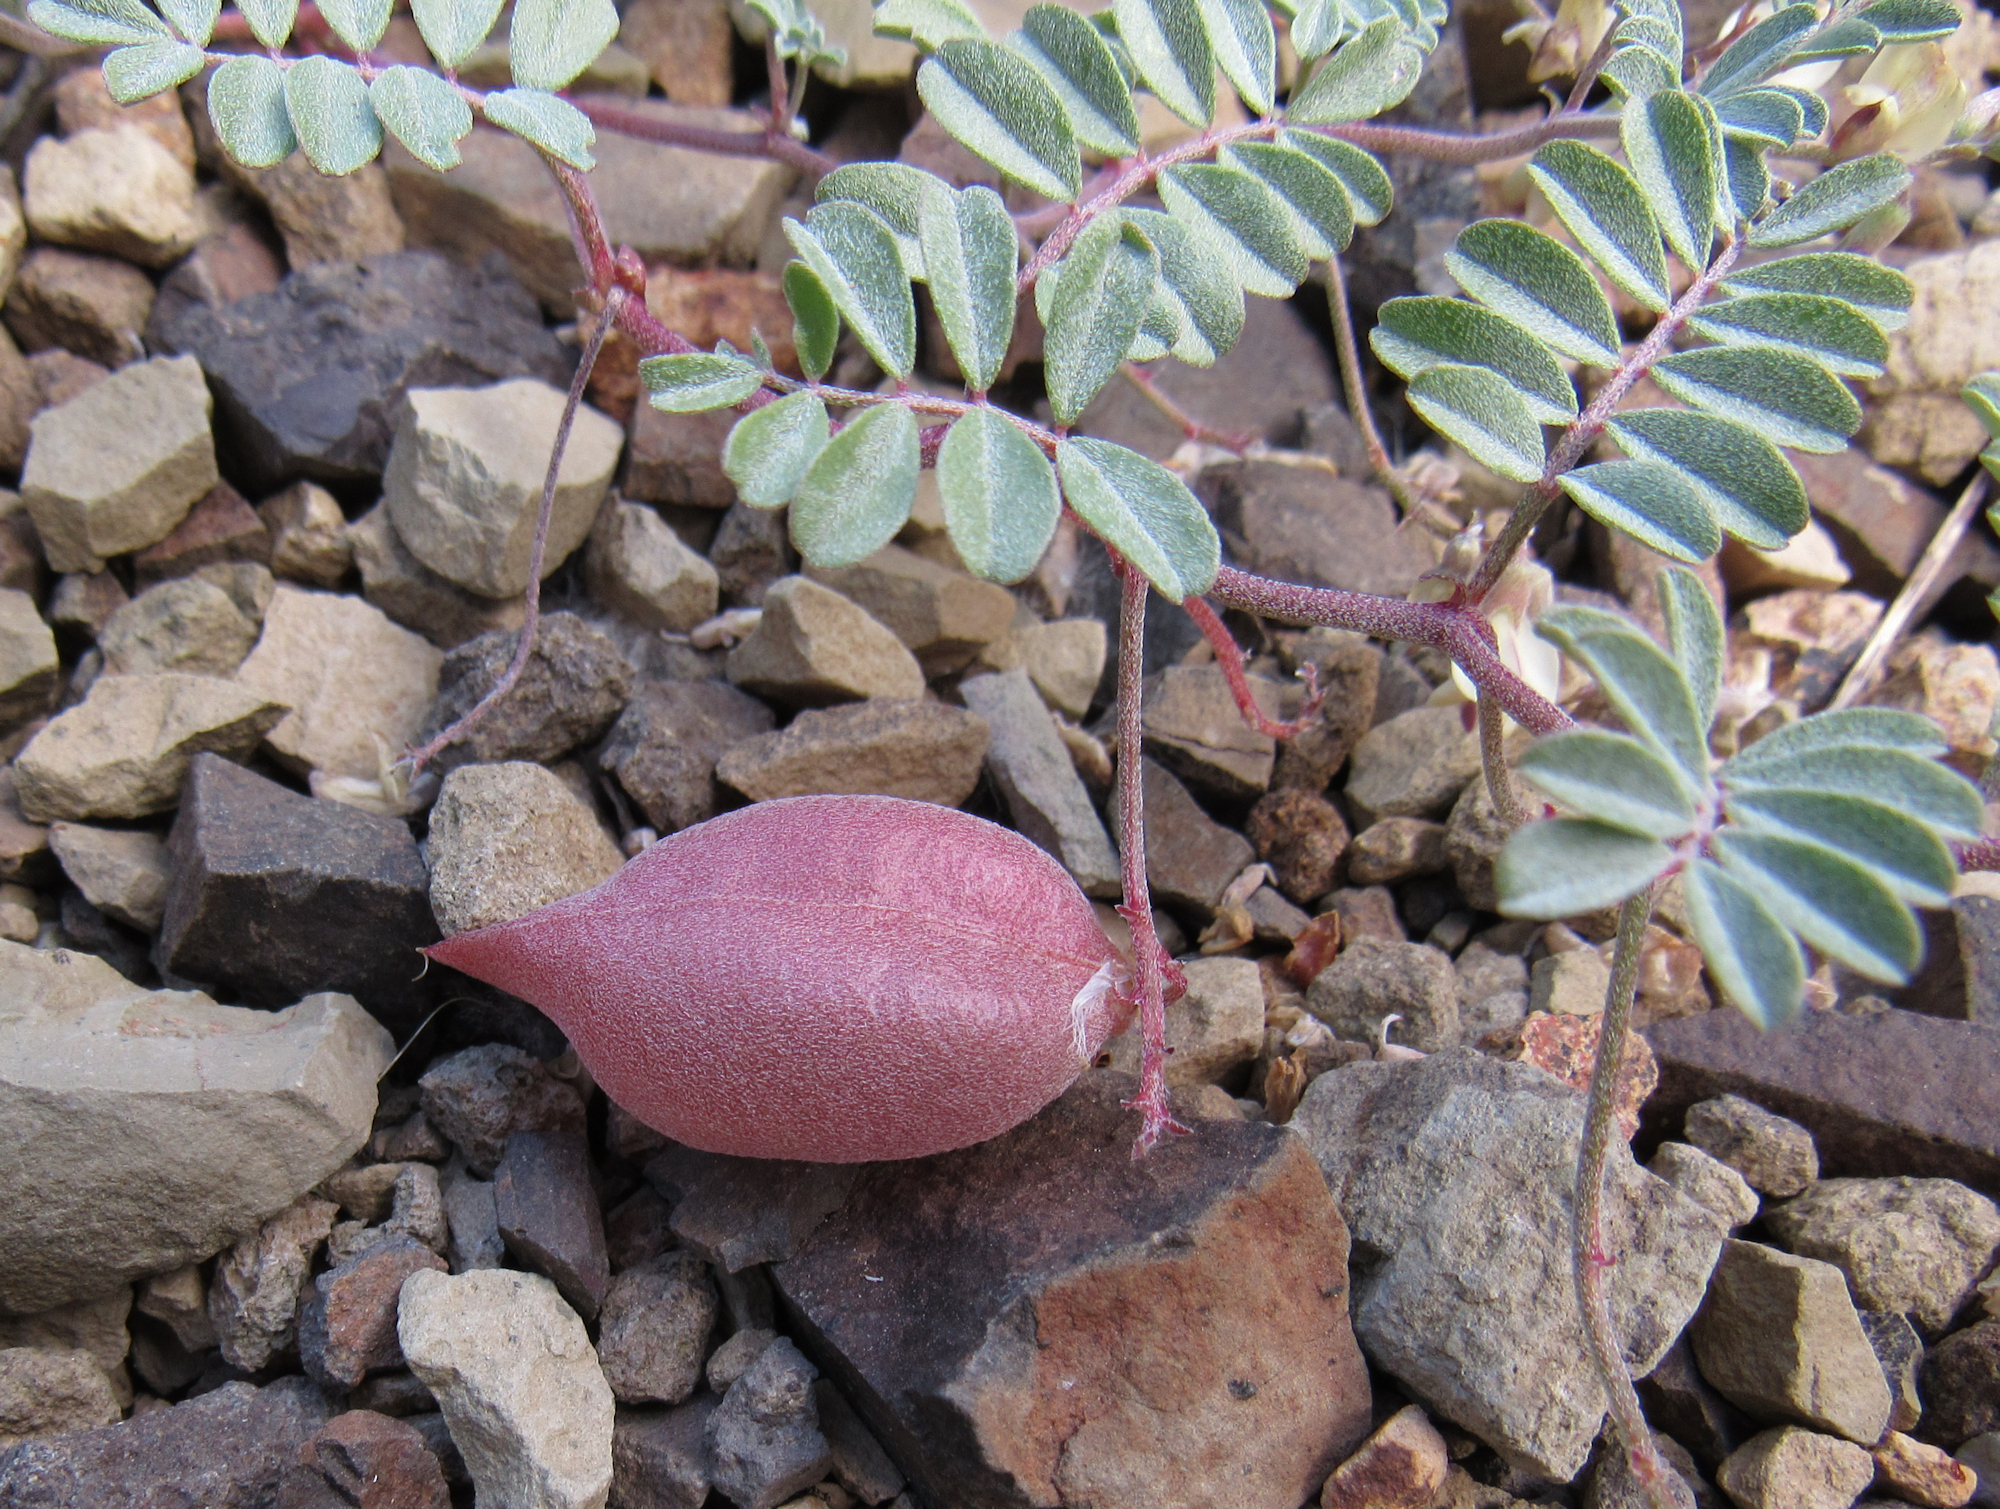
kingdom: Plantae
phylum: Tracheophyta
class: Magnoliopsida
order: Fabales
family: Fabaceae
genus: Astragalus
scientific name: Astragalus amblytropis
